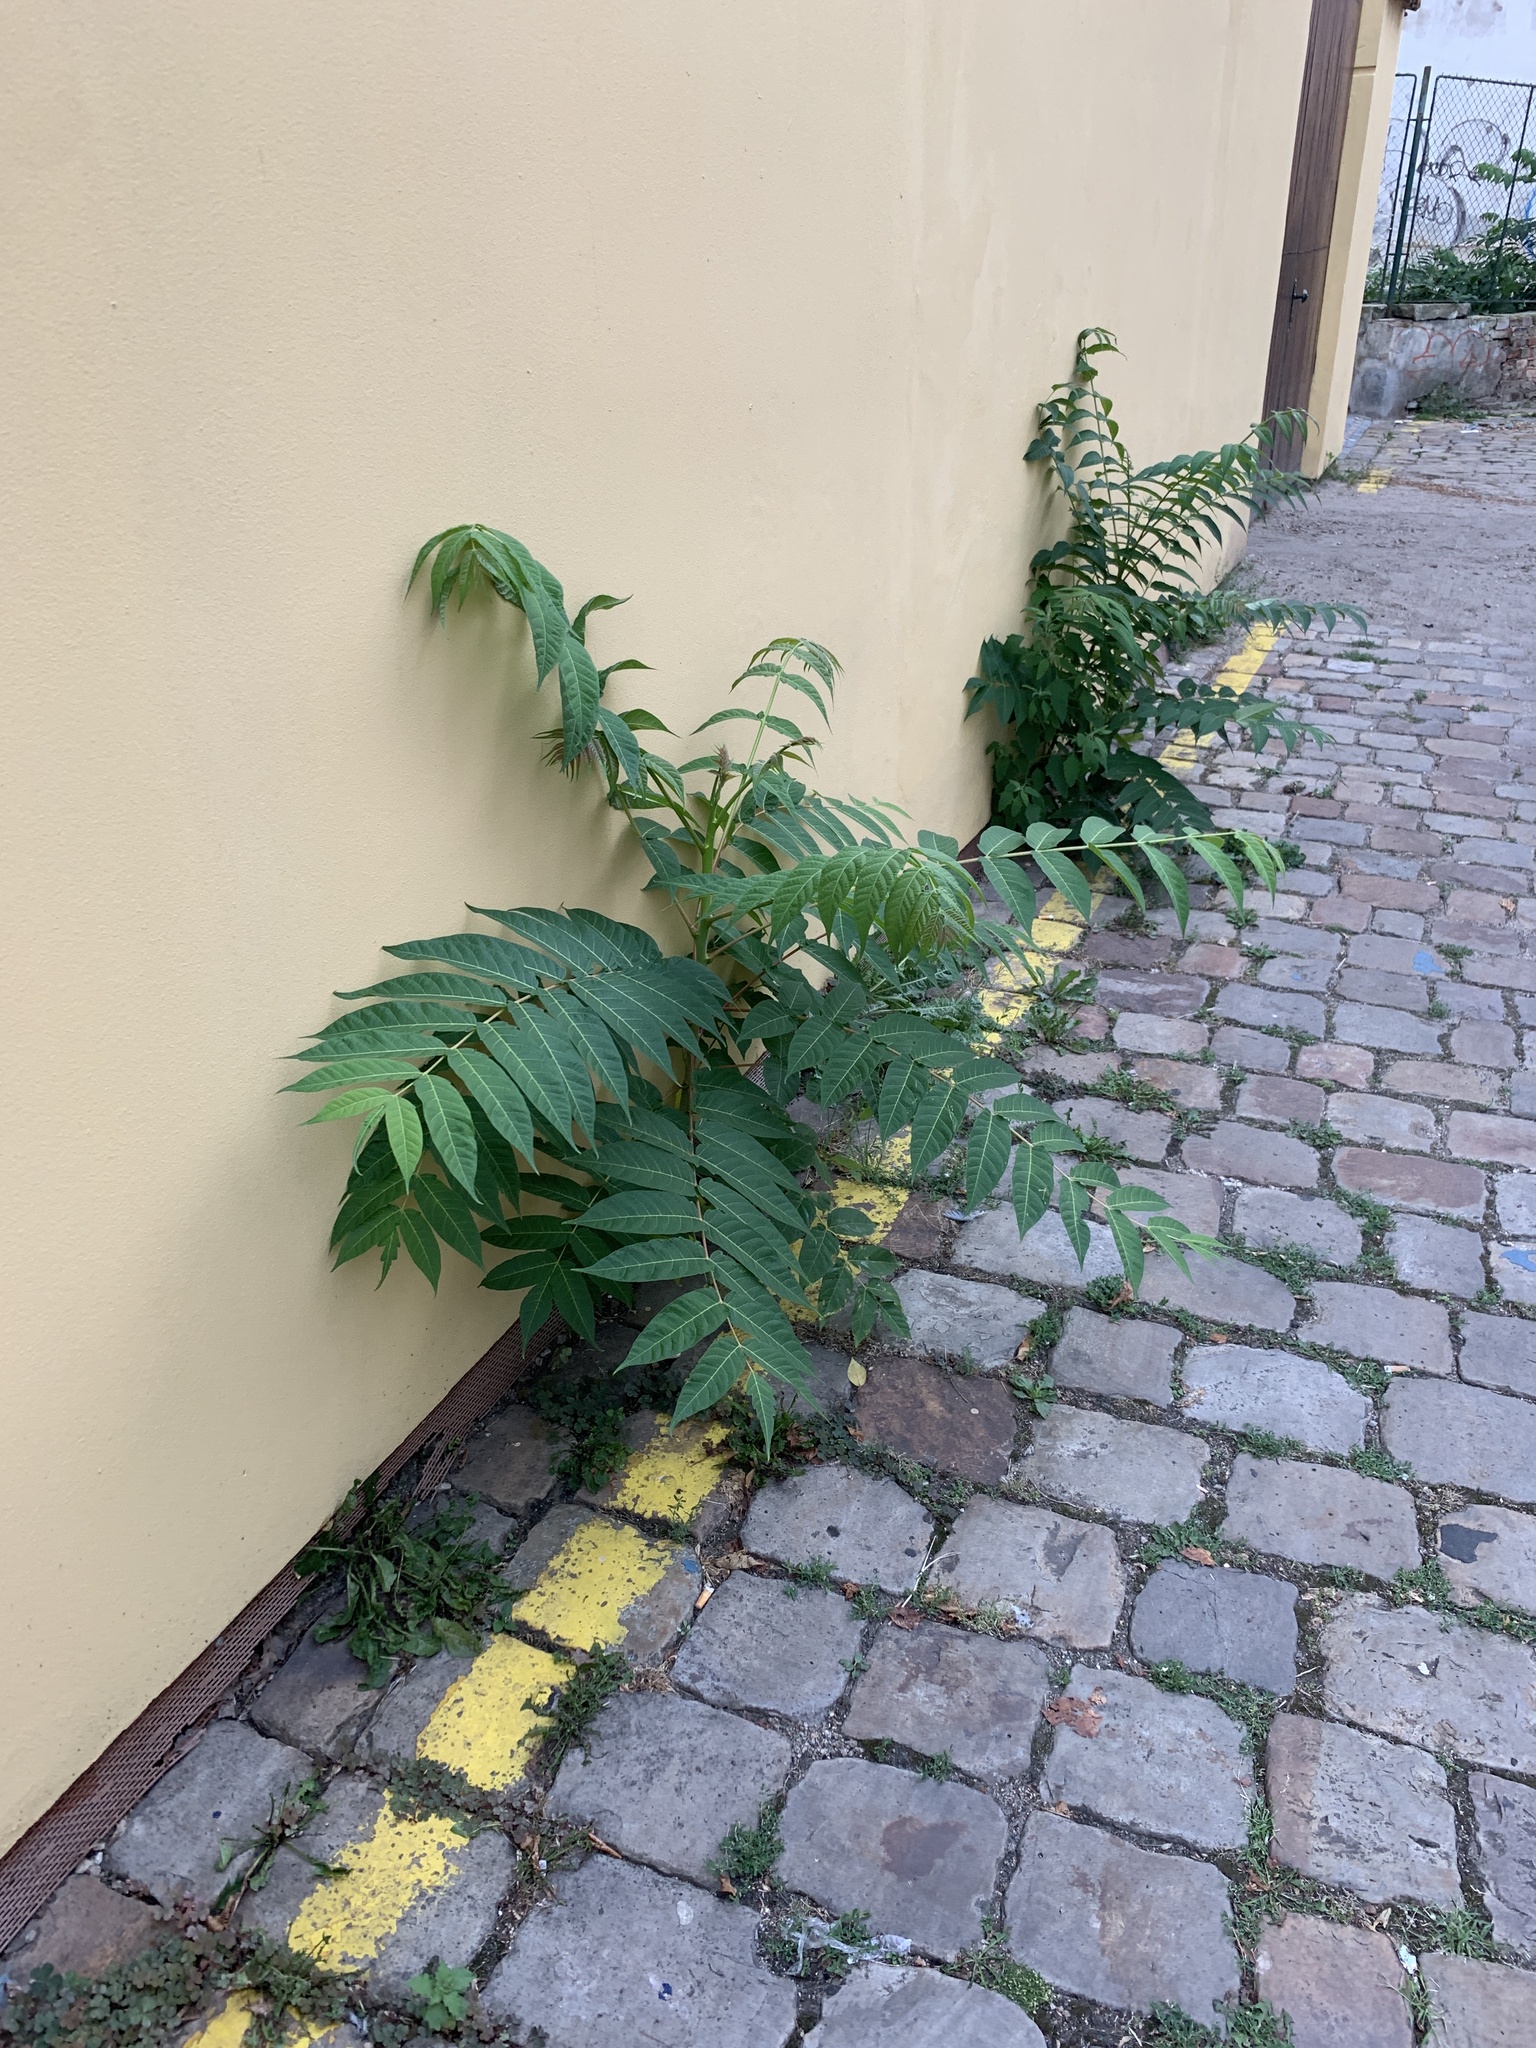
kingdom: Plantae
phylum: Tracheophyta
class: Magnoliopsida
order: Sapindales
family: Simaroubaceae
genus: Ailanthus
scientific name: Ailanthus altissima
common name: Tree-of-heaven
